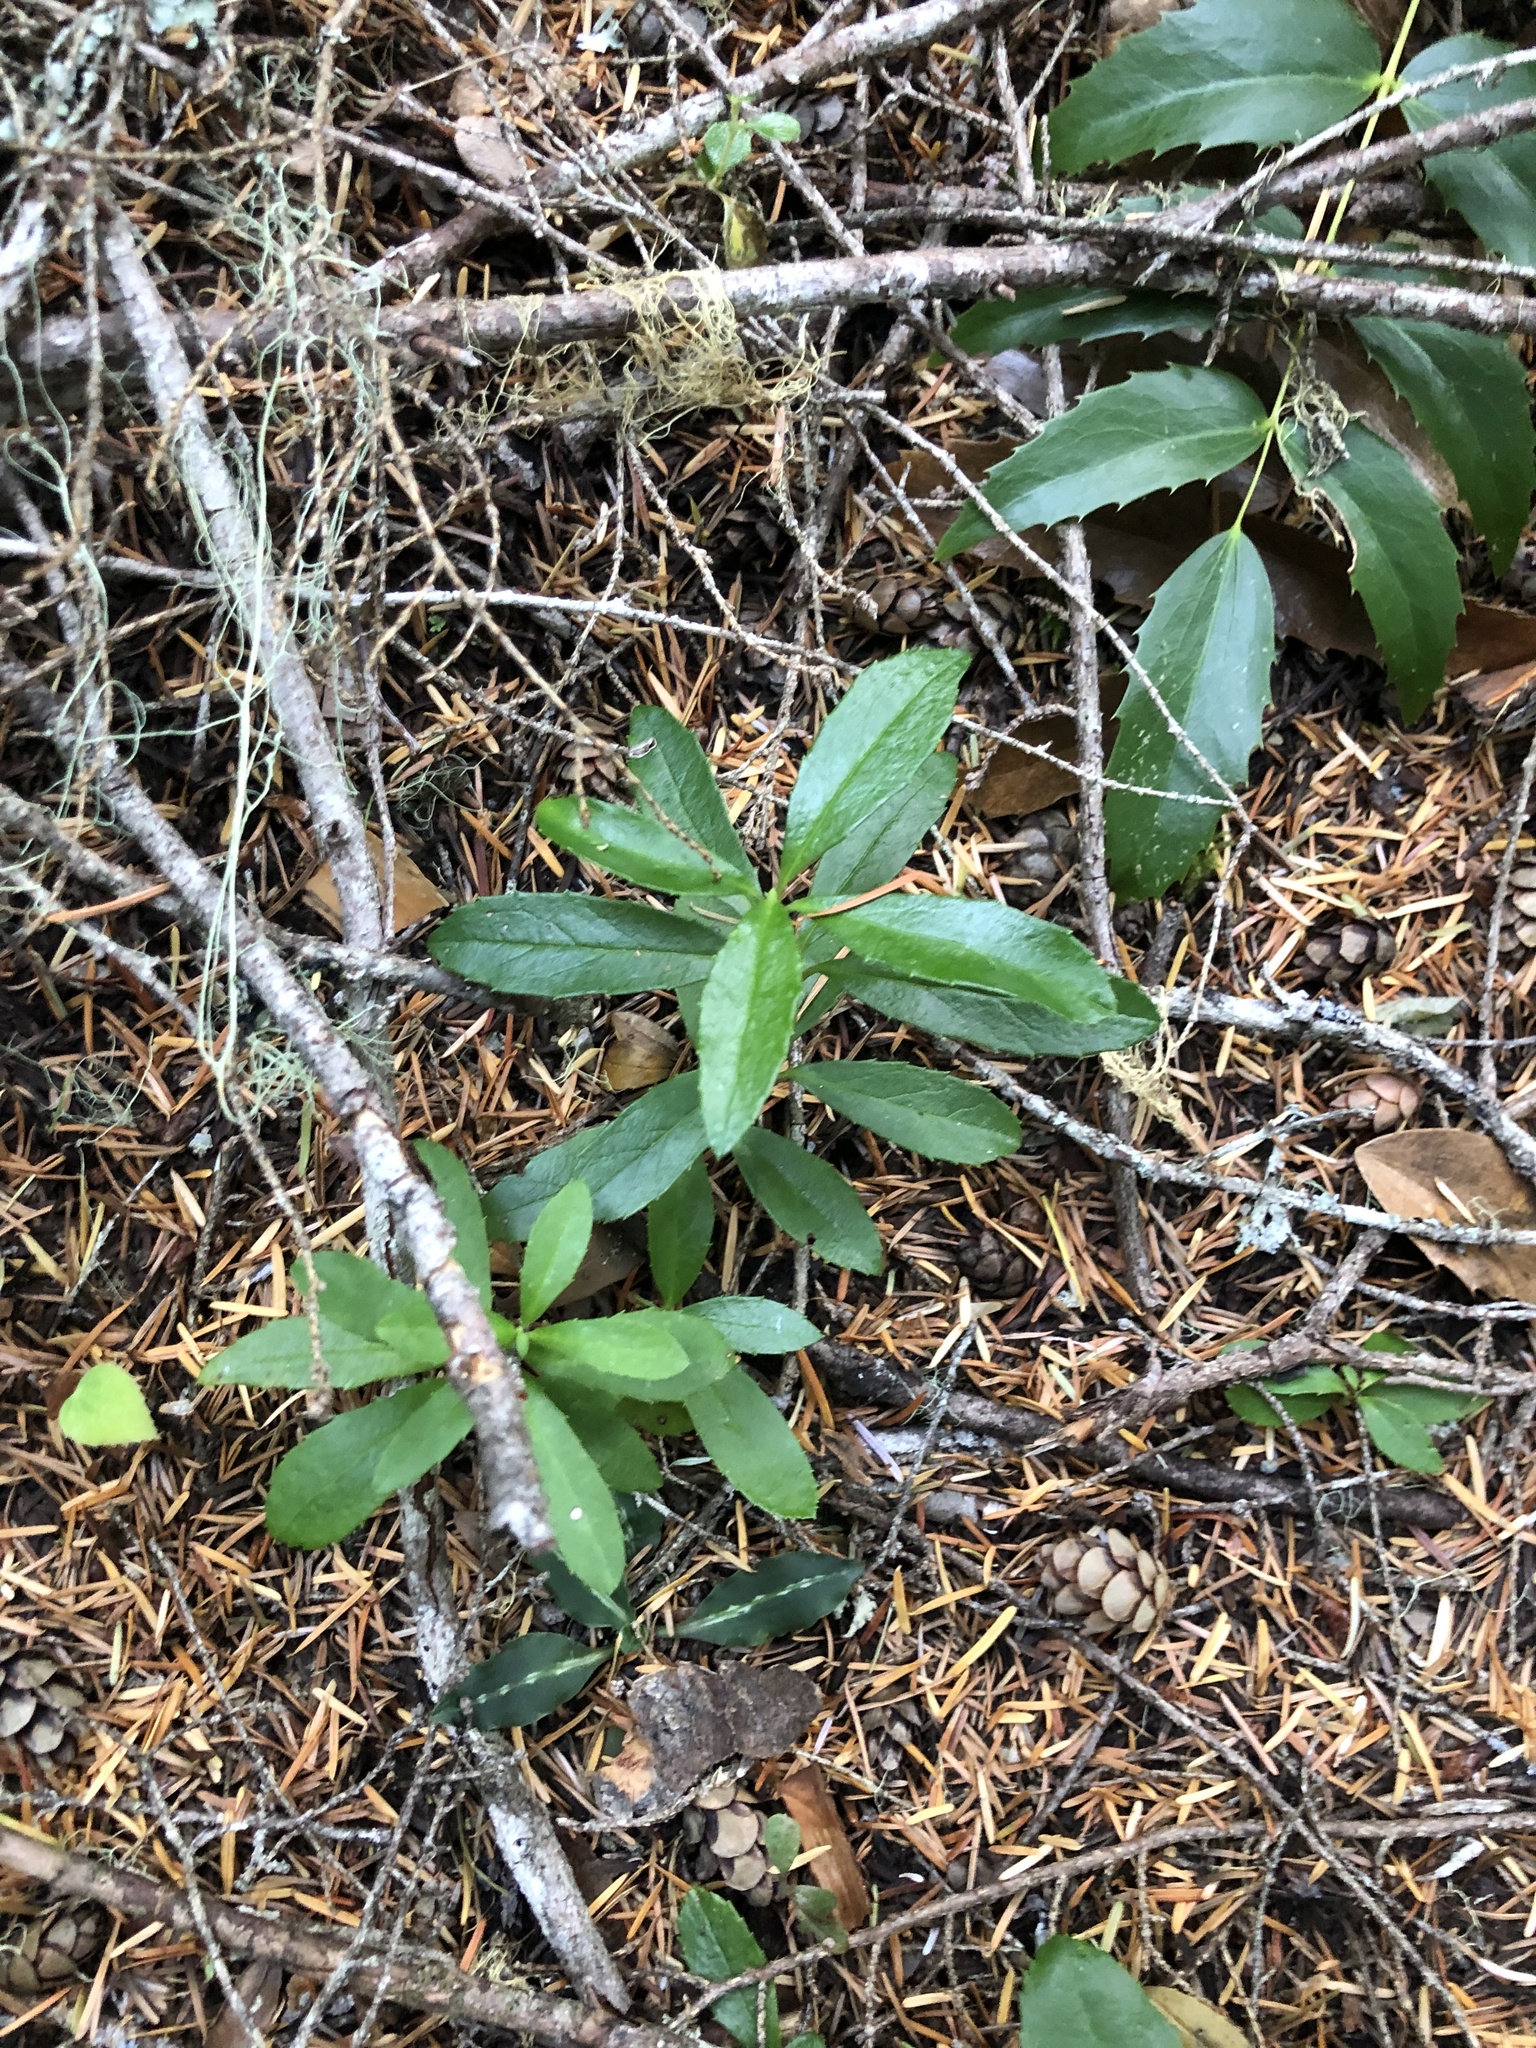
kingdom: Plantae
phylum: Tracheophyta
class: Magnoliopsida
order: Ericales
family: Ericaceae
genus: Chimaphila
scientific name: Chimaphila umbellata
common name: Pipsissewa
